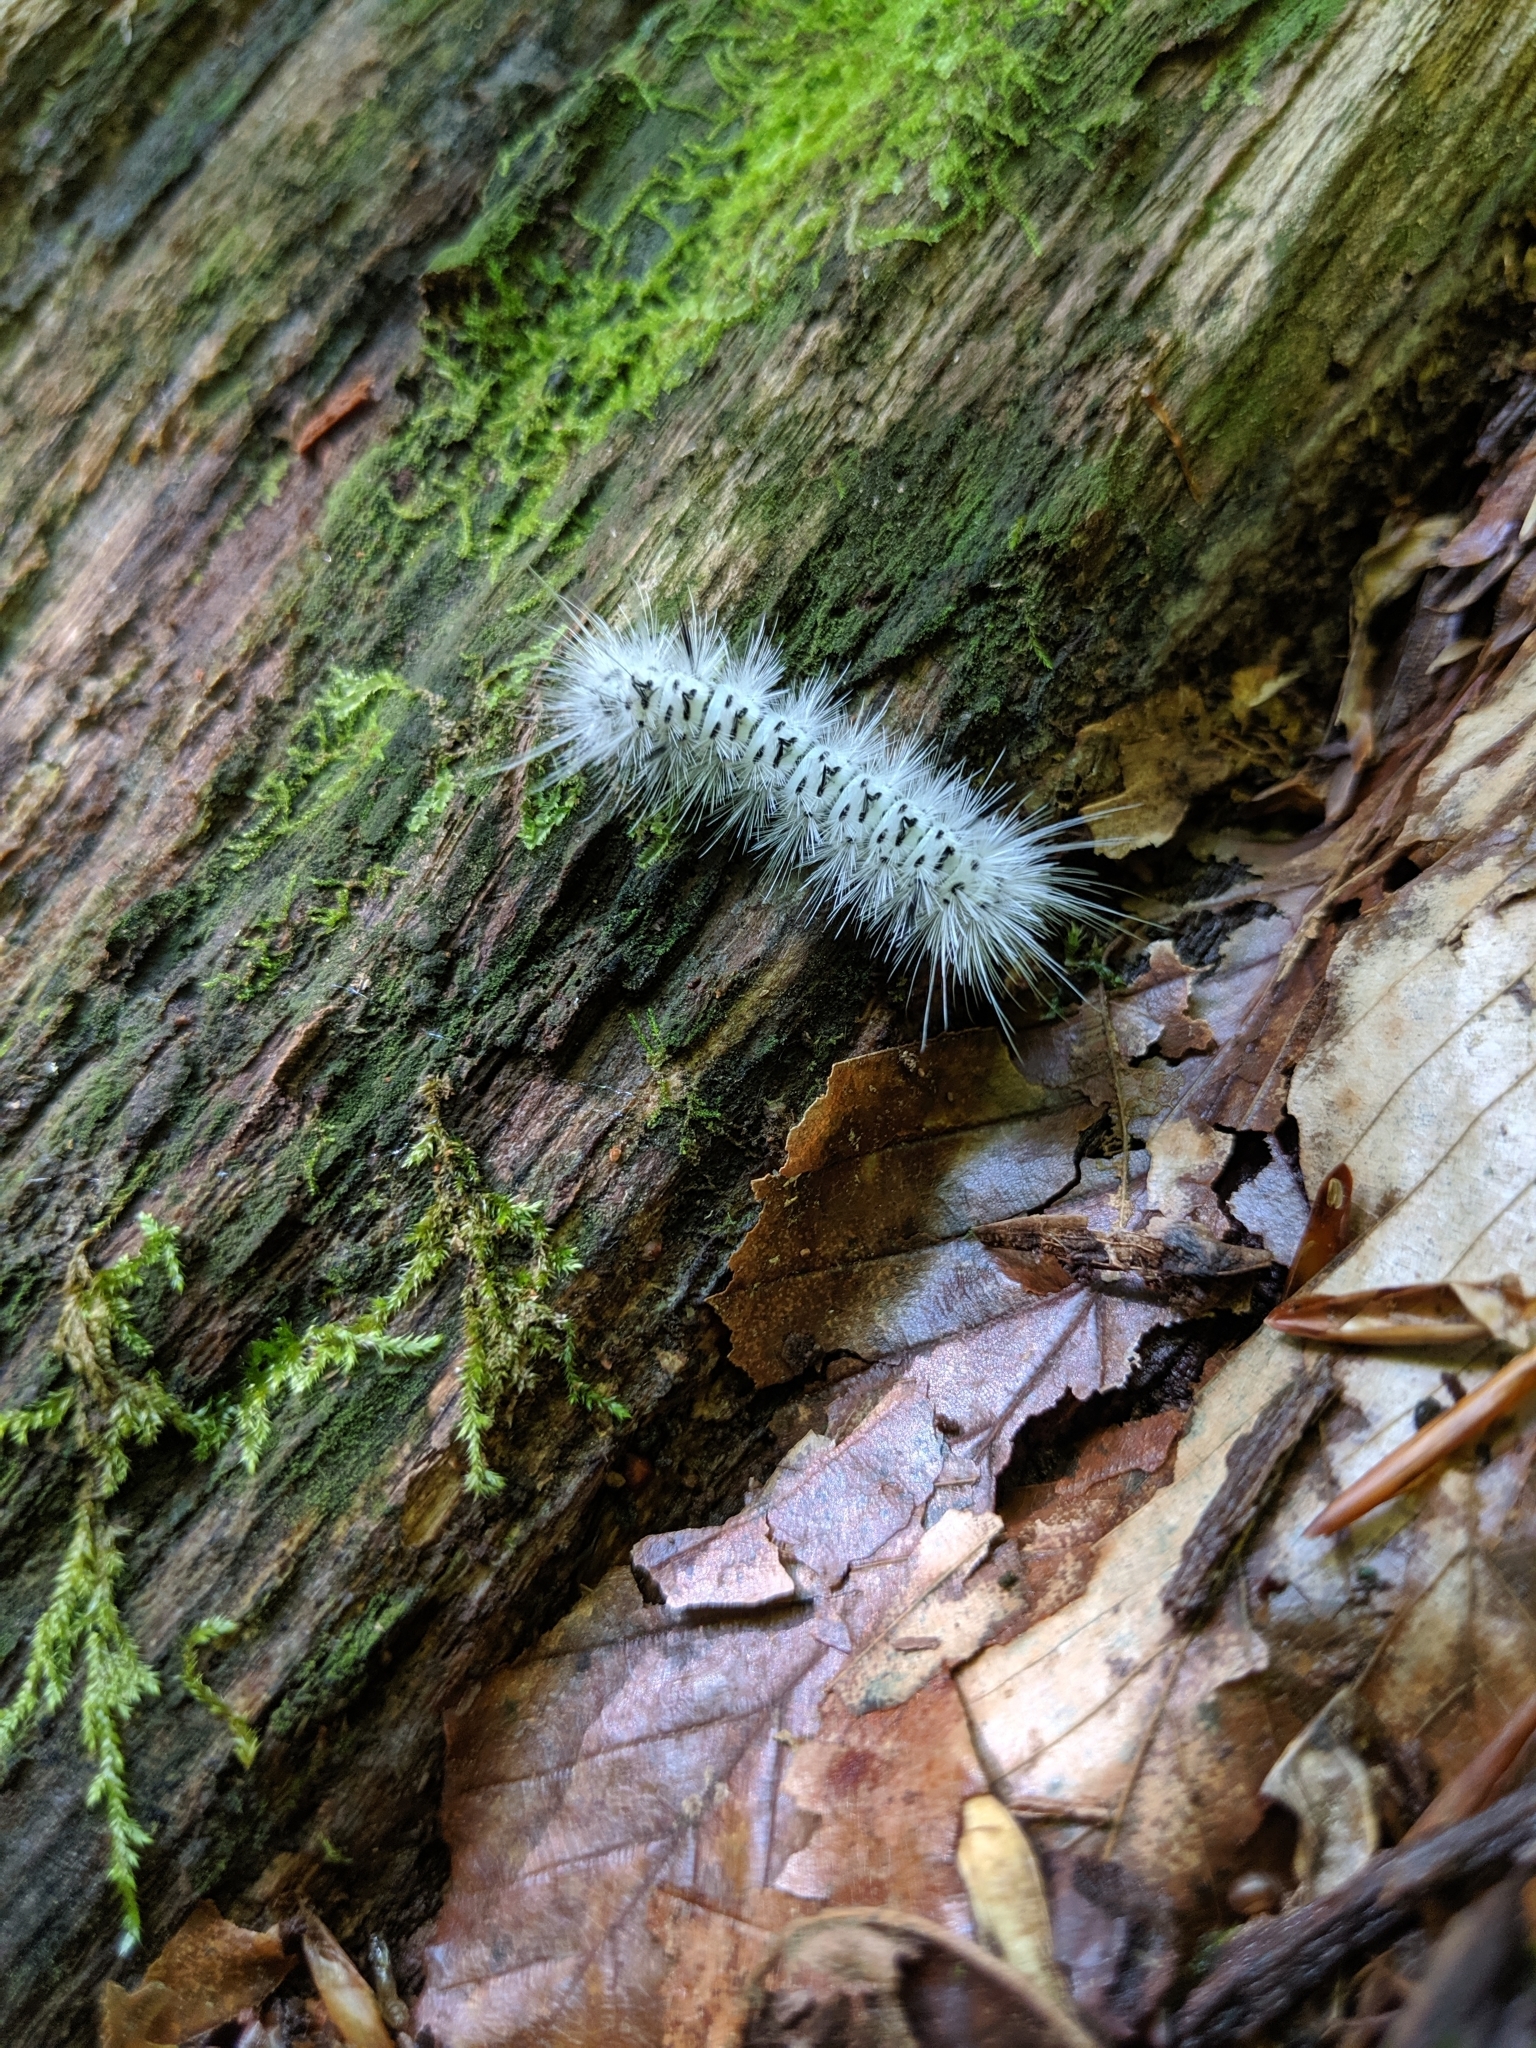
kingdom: Animalia
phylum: Arthropoda
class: Insecta
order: Lepidoptera
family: Erebidae
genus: Lophocampa
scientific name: Lophocampa caryae
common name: Hickory tussock moth
